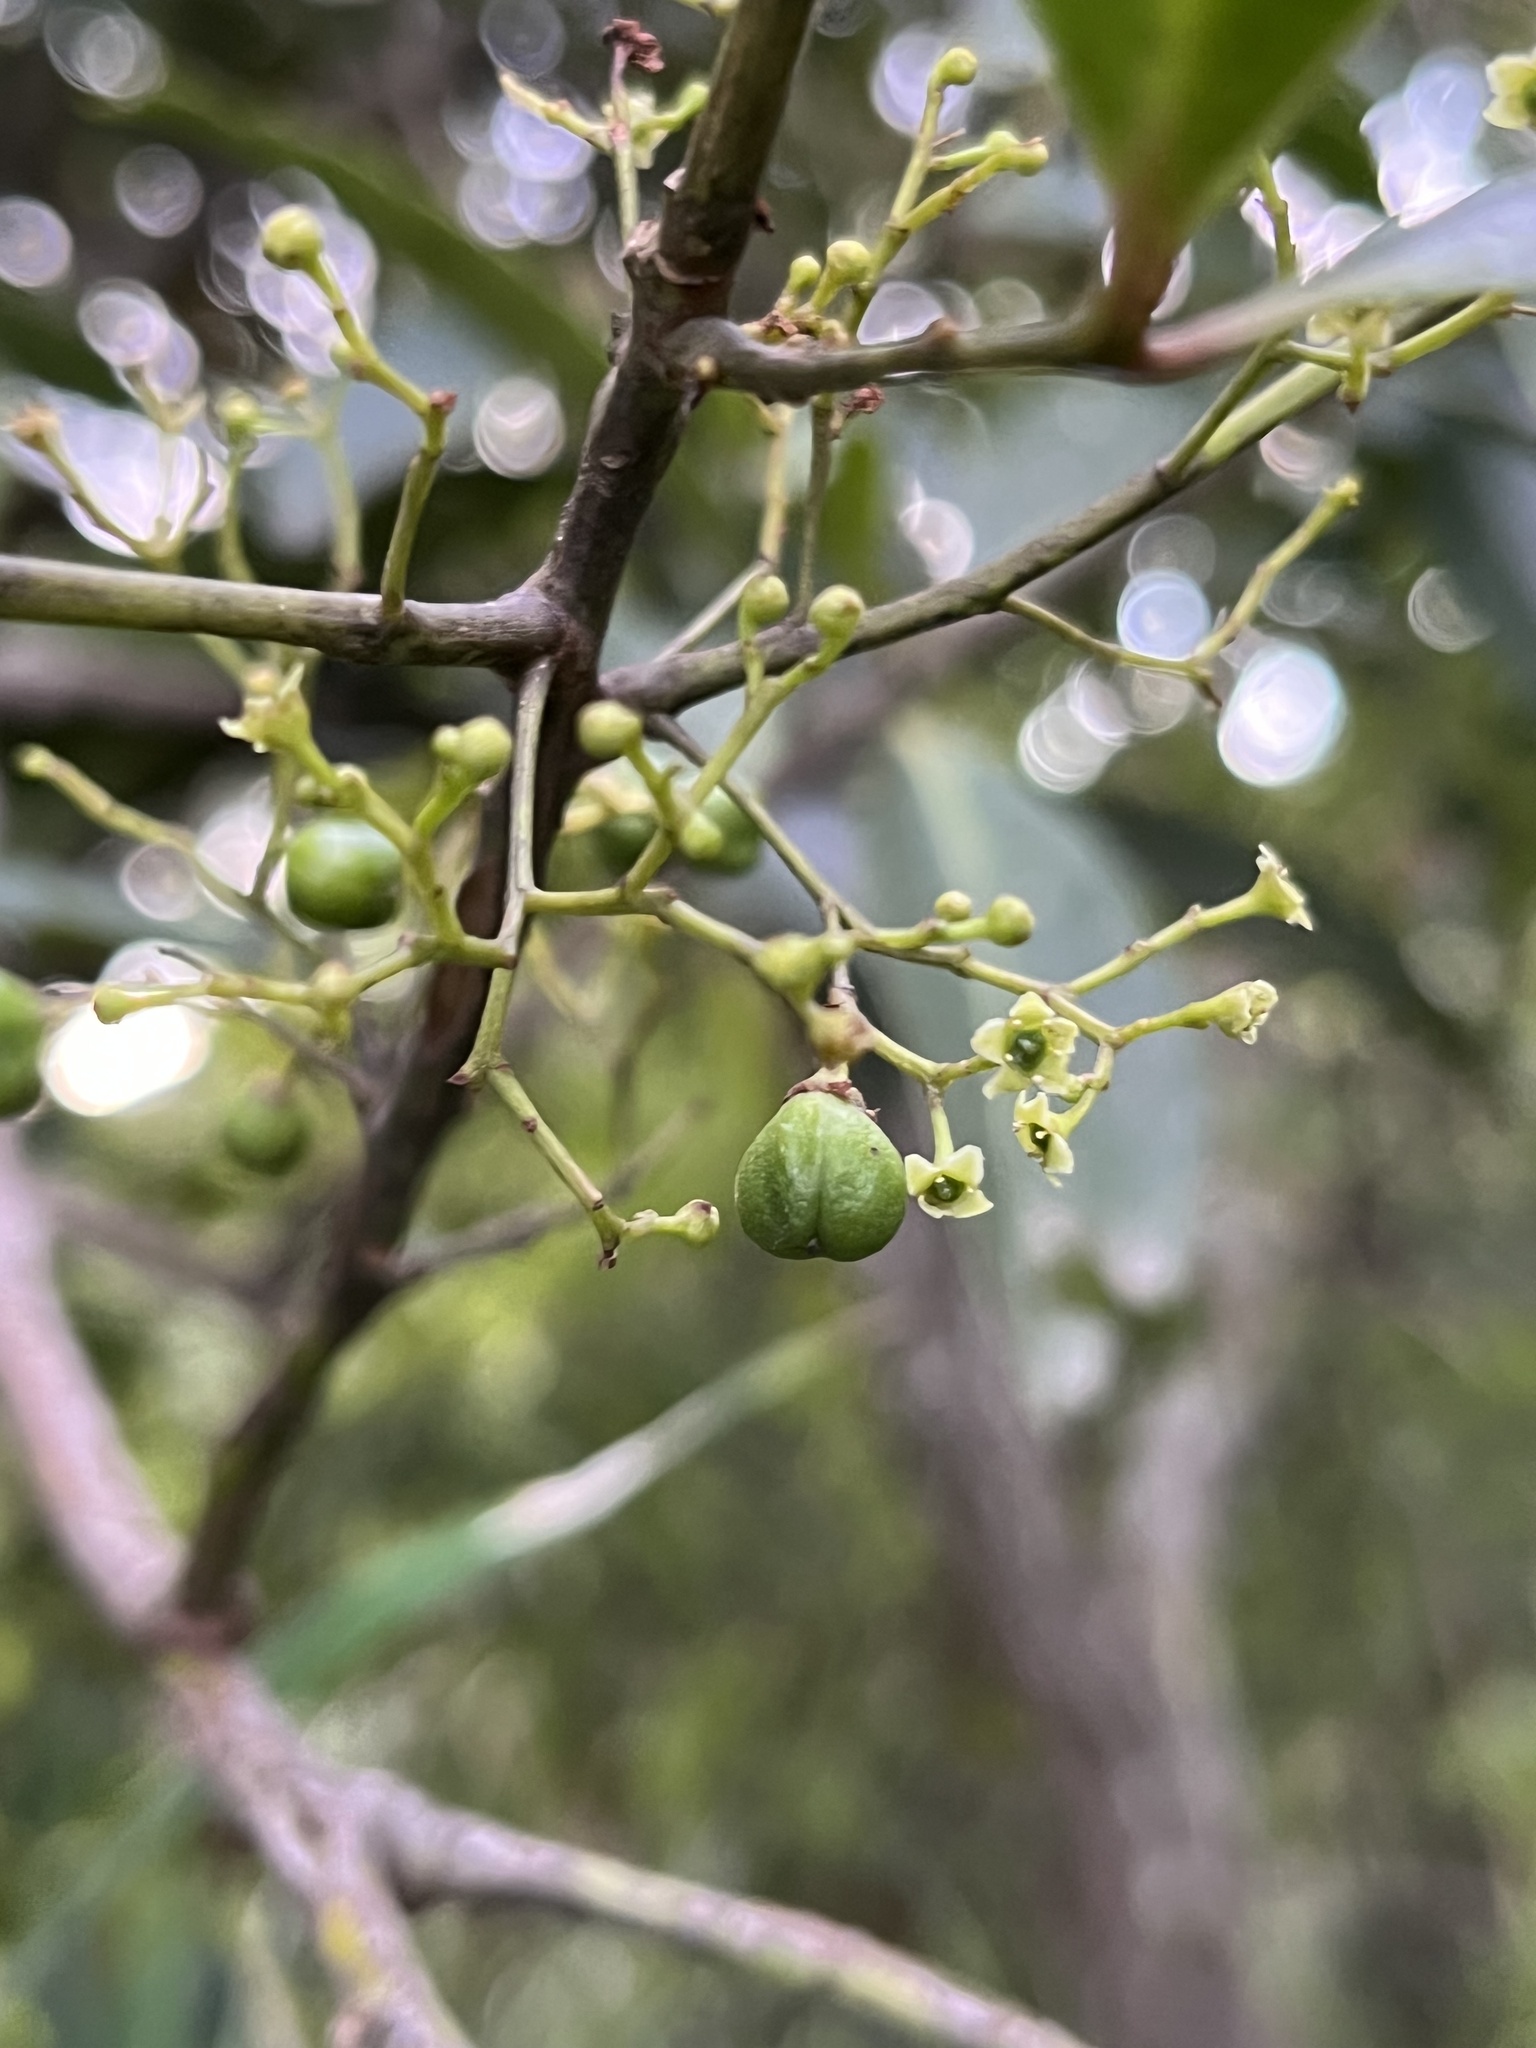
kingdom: Plantae
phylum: Tracheophyta
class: Magnoliopsida
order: Celastrales
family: Celastraceae
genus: Maytenus
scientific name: Maytenus laxiflora
